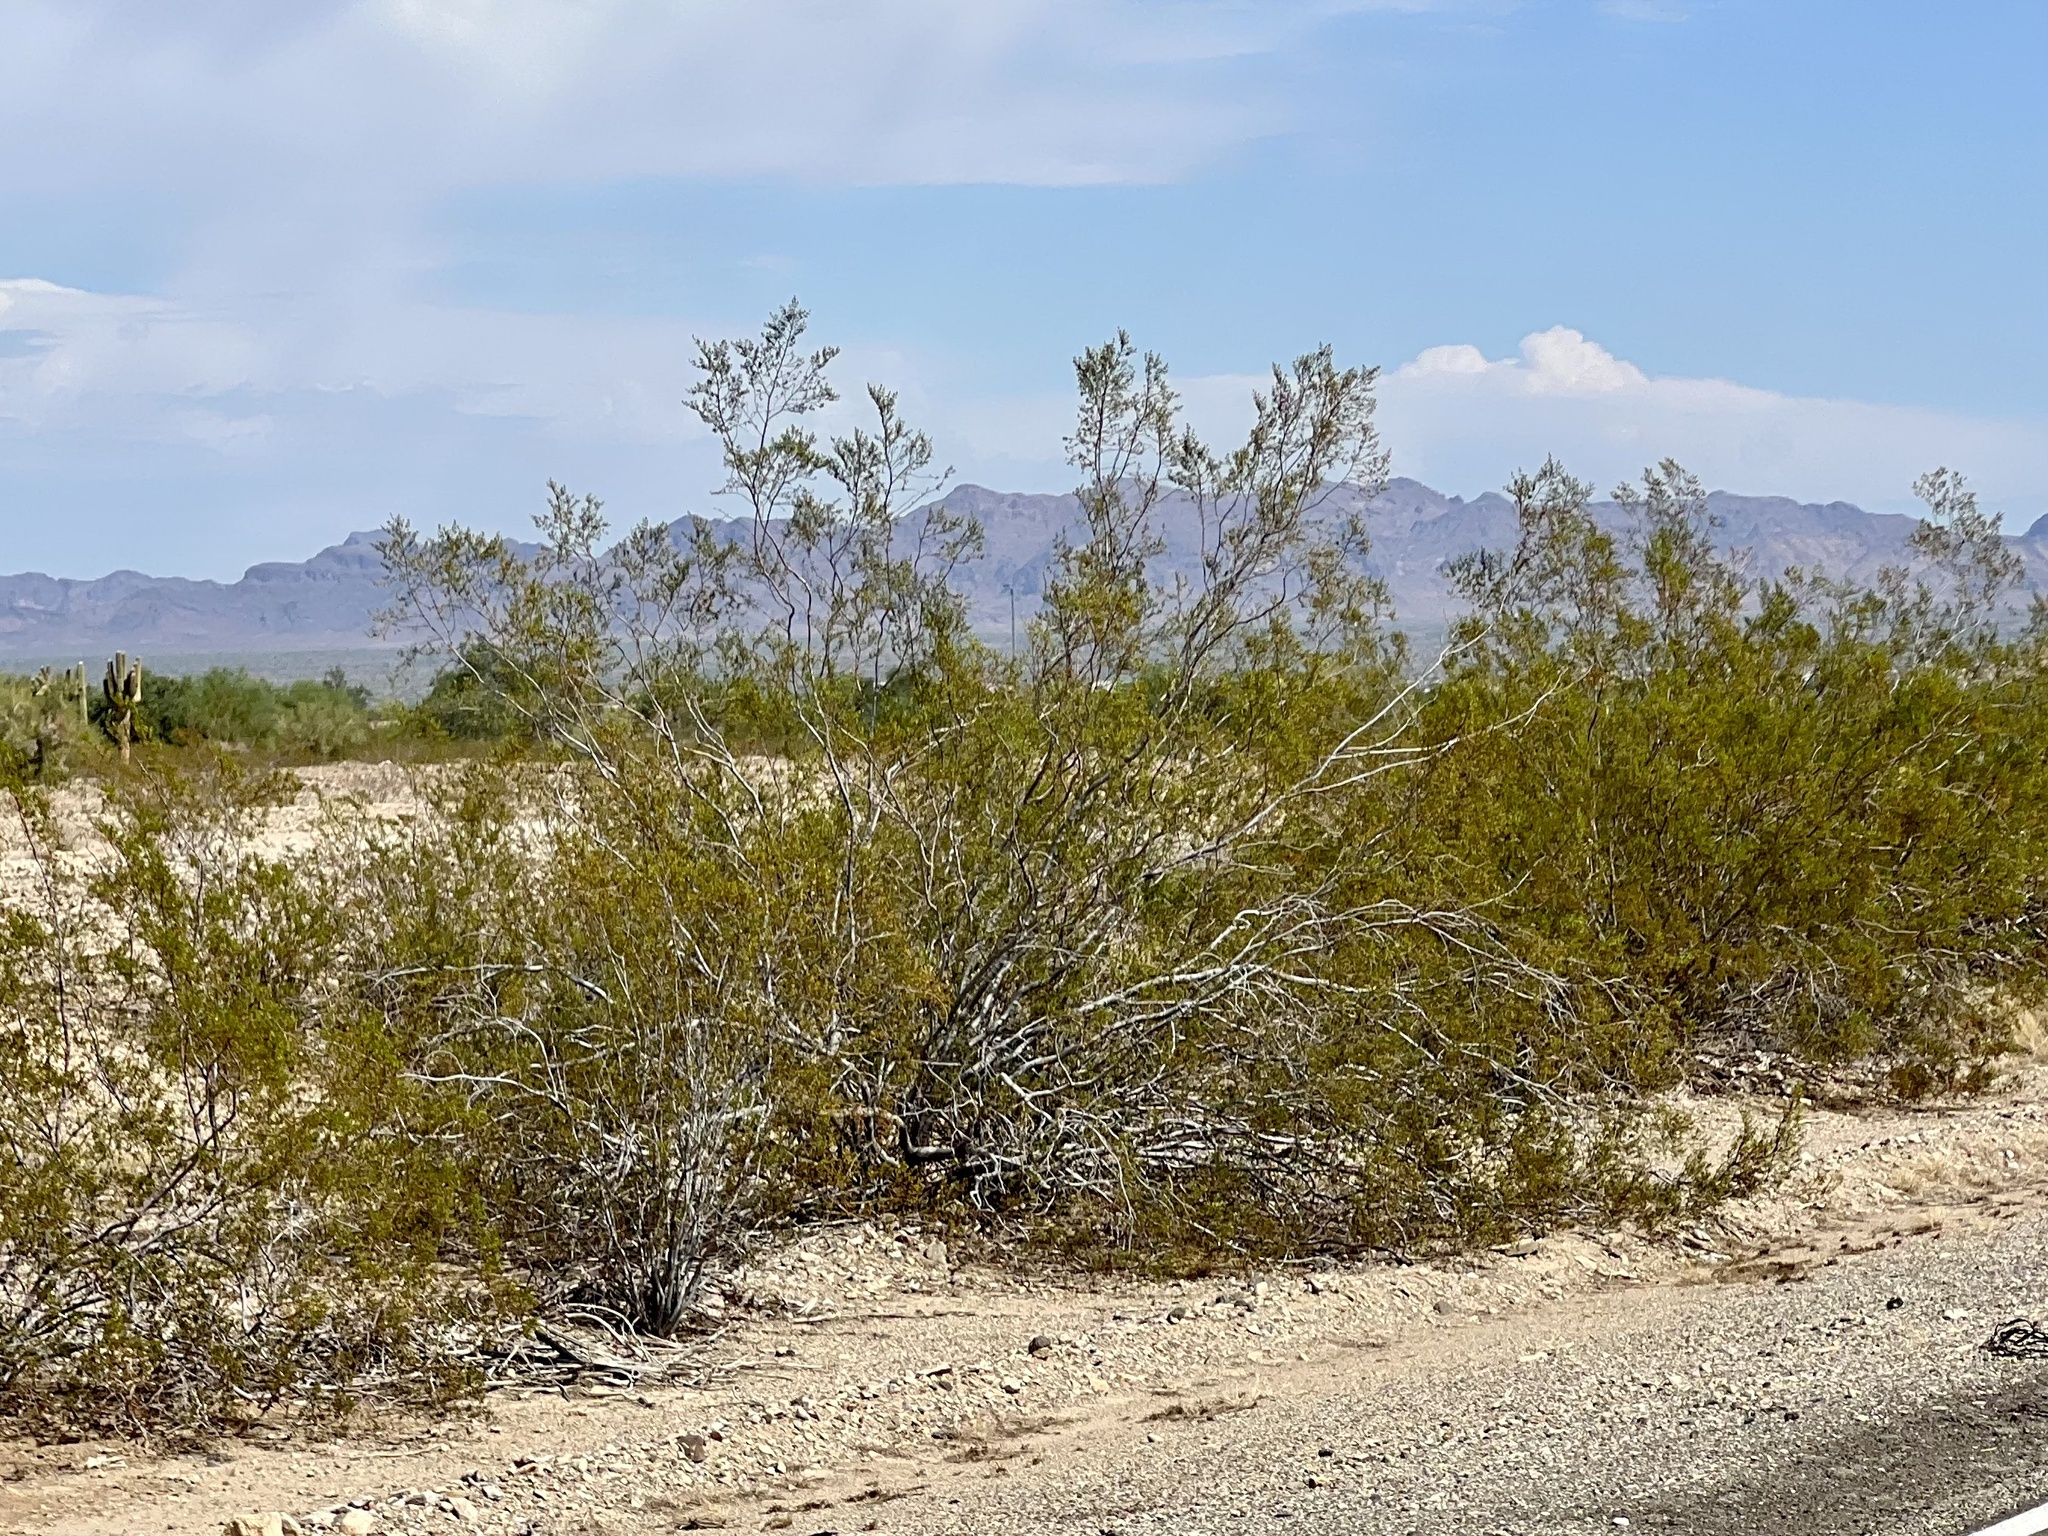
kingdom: Plantae
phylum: Tracheophyta
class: Magnoliopsida
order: Zygophyllales
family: Zygophyllaceae
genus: Larrea
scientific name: Larrea tridentata
